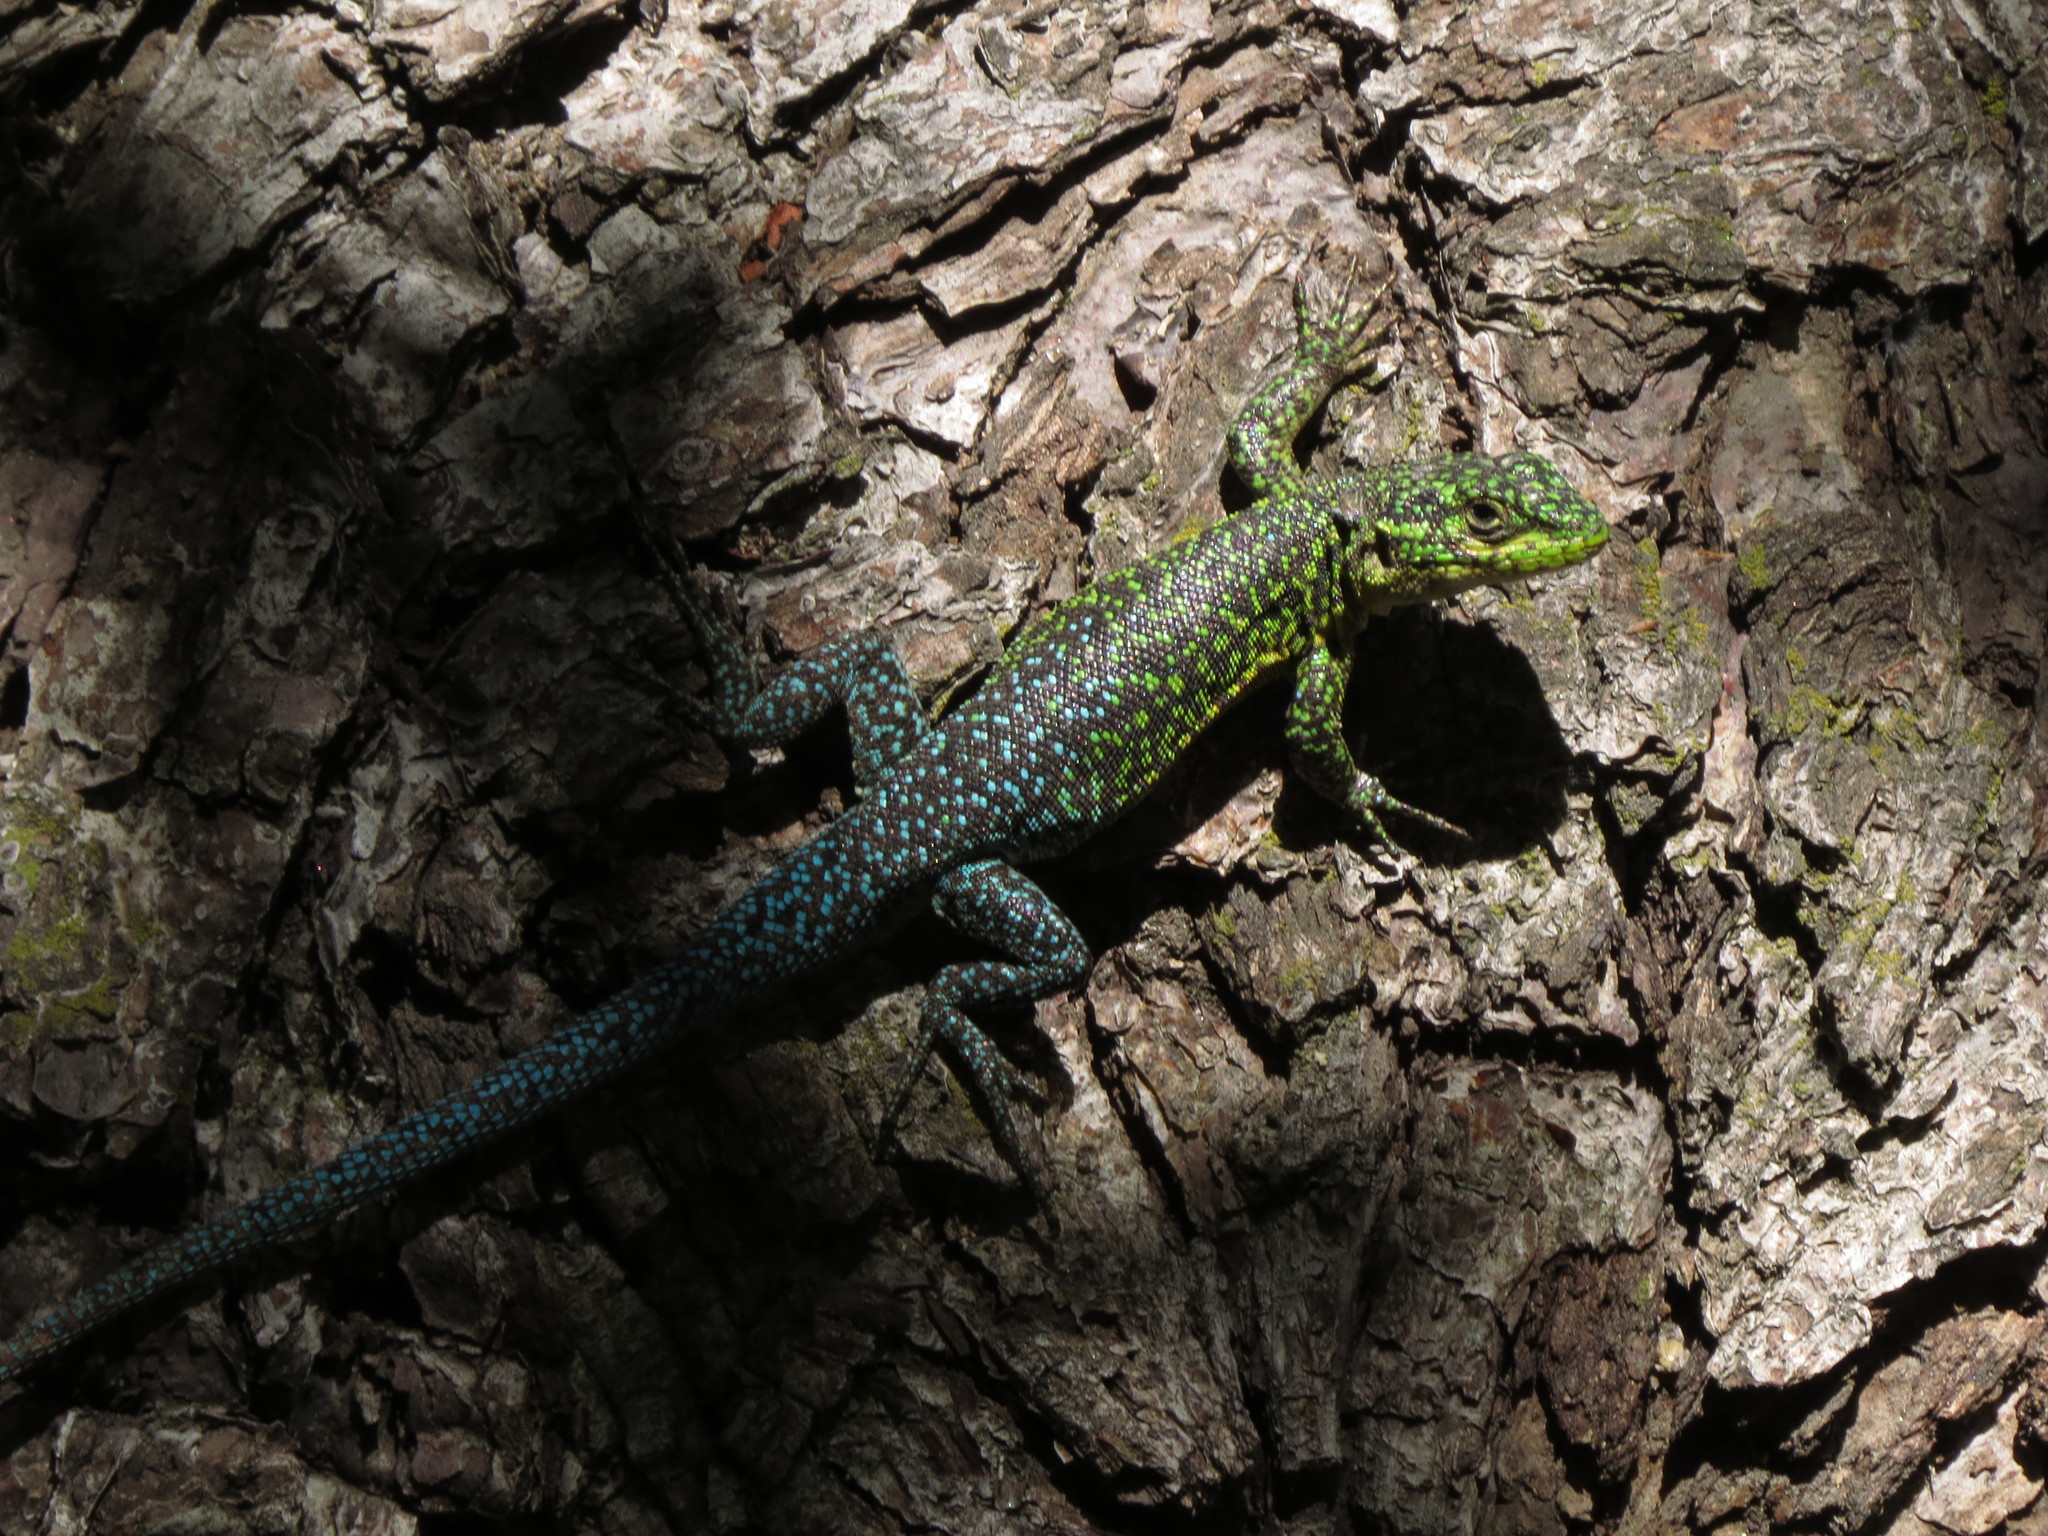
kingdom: Animalia
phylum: Chordata
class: Squamata
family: Liolaemidae
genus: Liolaemus
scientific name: Liolaemus tenuis
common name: Thin tree iguana
